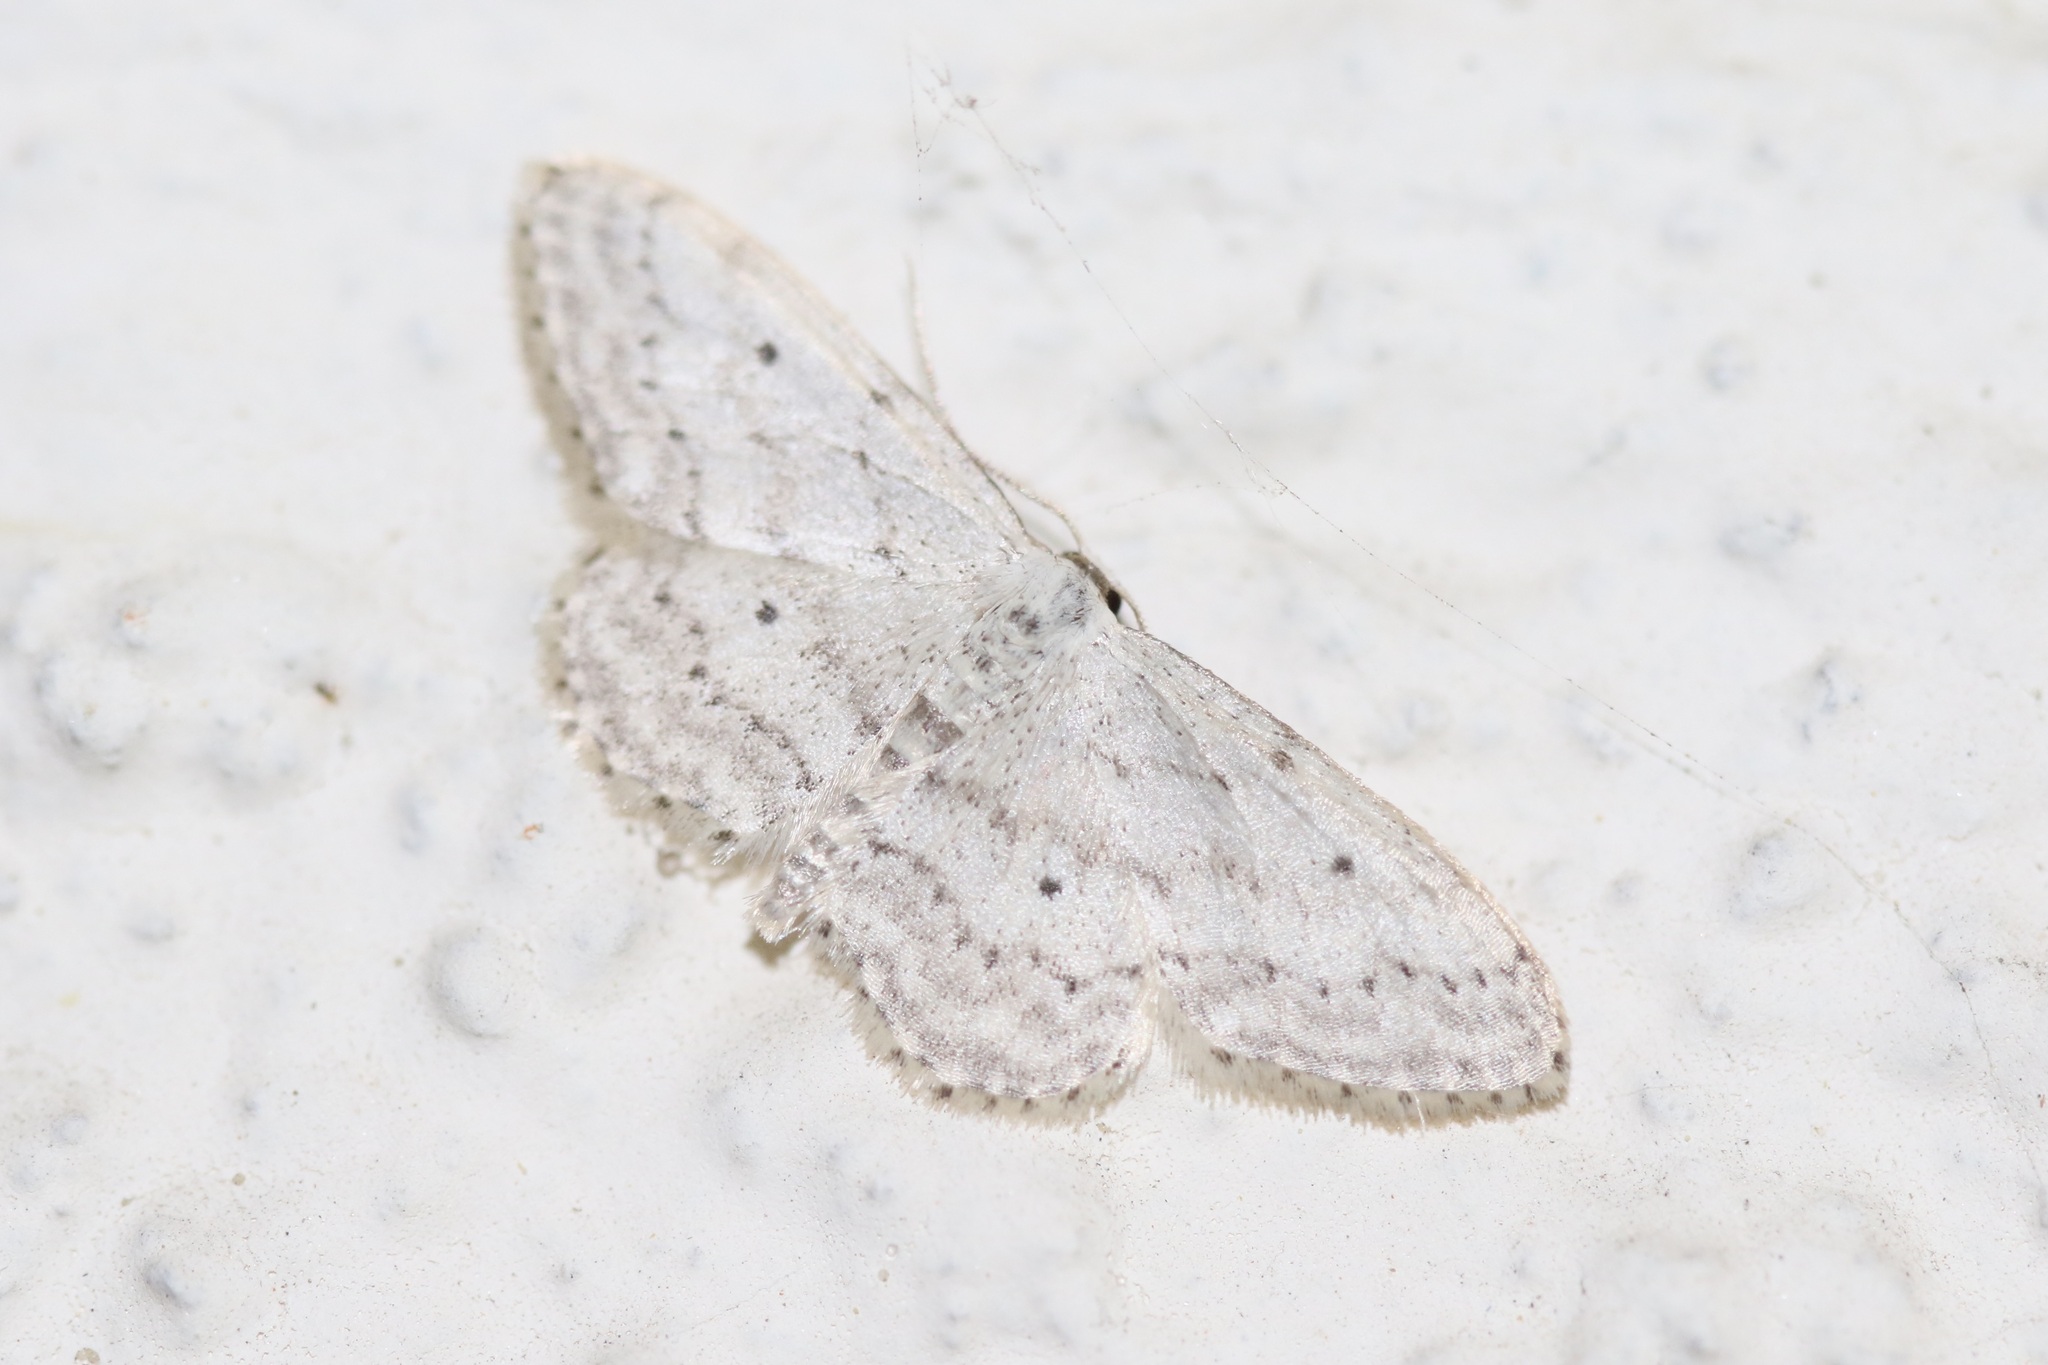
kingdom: Animalia
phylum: Arthropoda
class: Insecta
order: Lepidoptera
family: Geometridae
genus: Idaea
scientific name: Idaea seriata
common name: Small dusty wave
